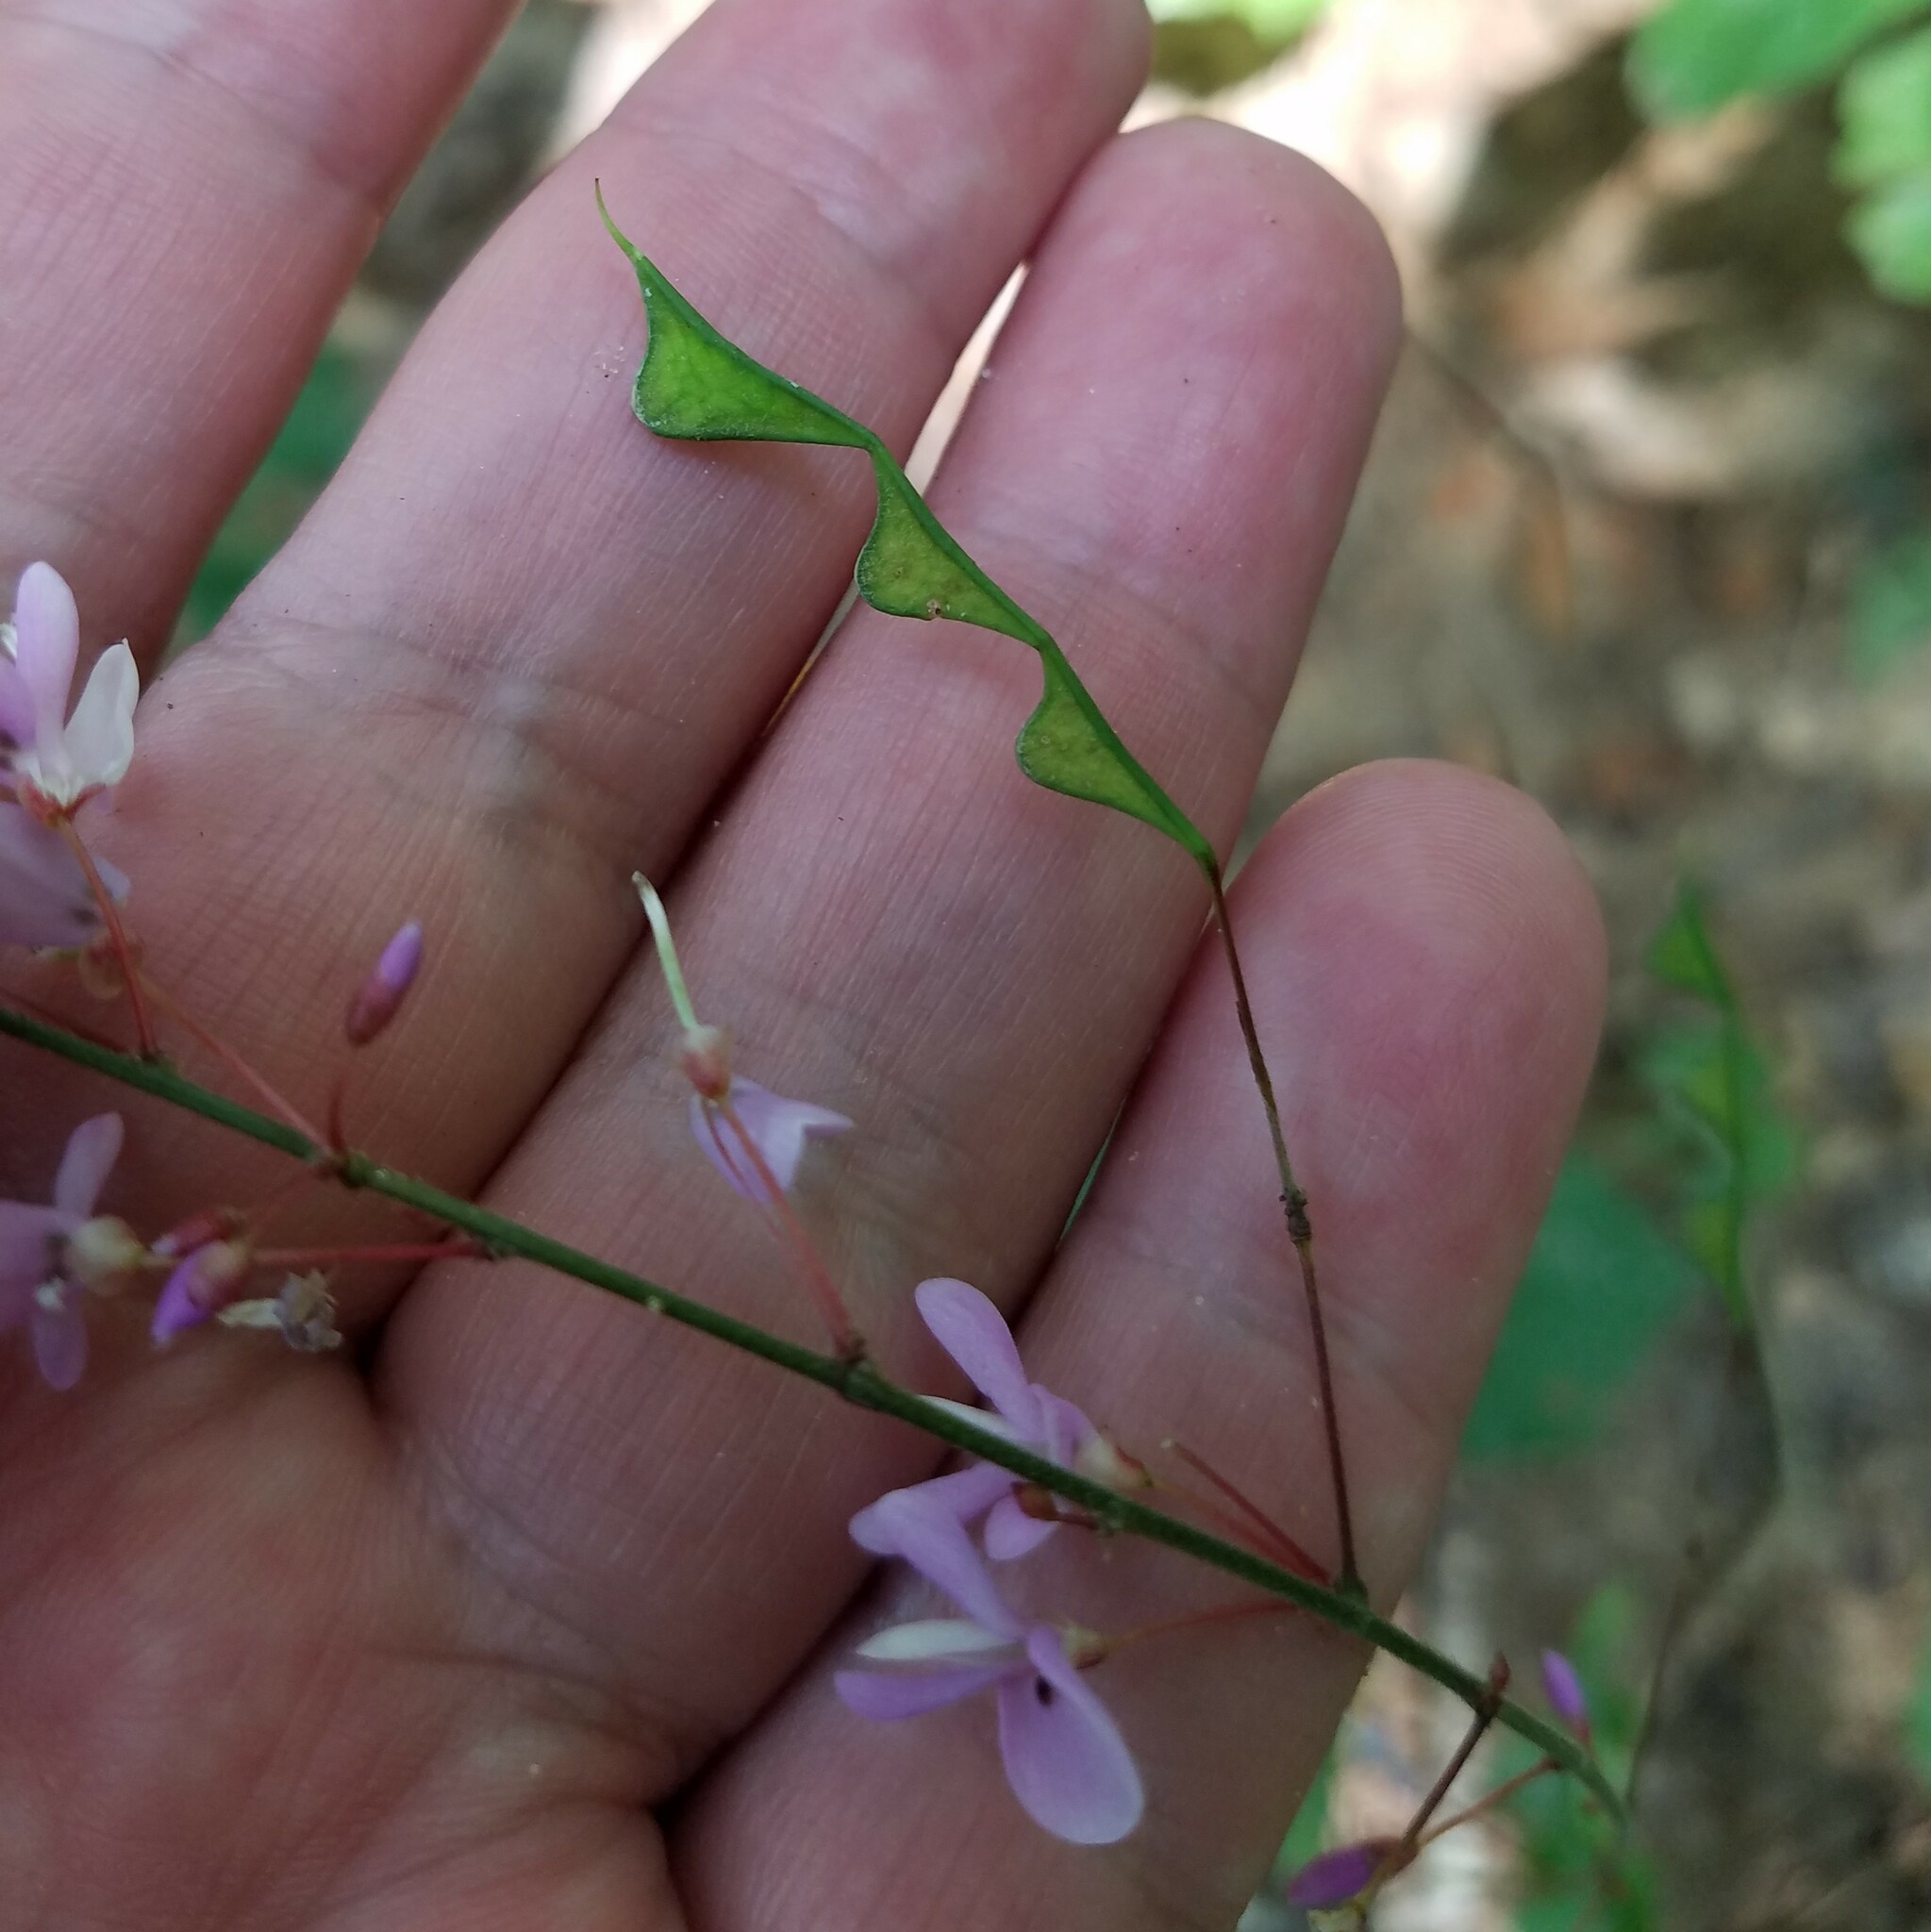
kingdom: Plantae
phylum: Tracheophyta
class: Magnoliopsida
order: Fabales
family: Fabaceae
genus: Hylodesmum
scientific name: Hylodesmum nudiflorum
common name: Bare-stemmed tick-trefoil
